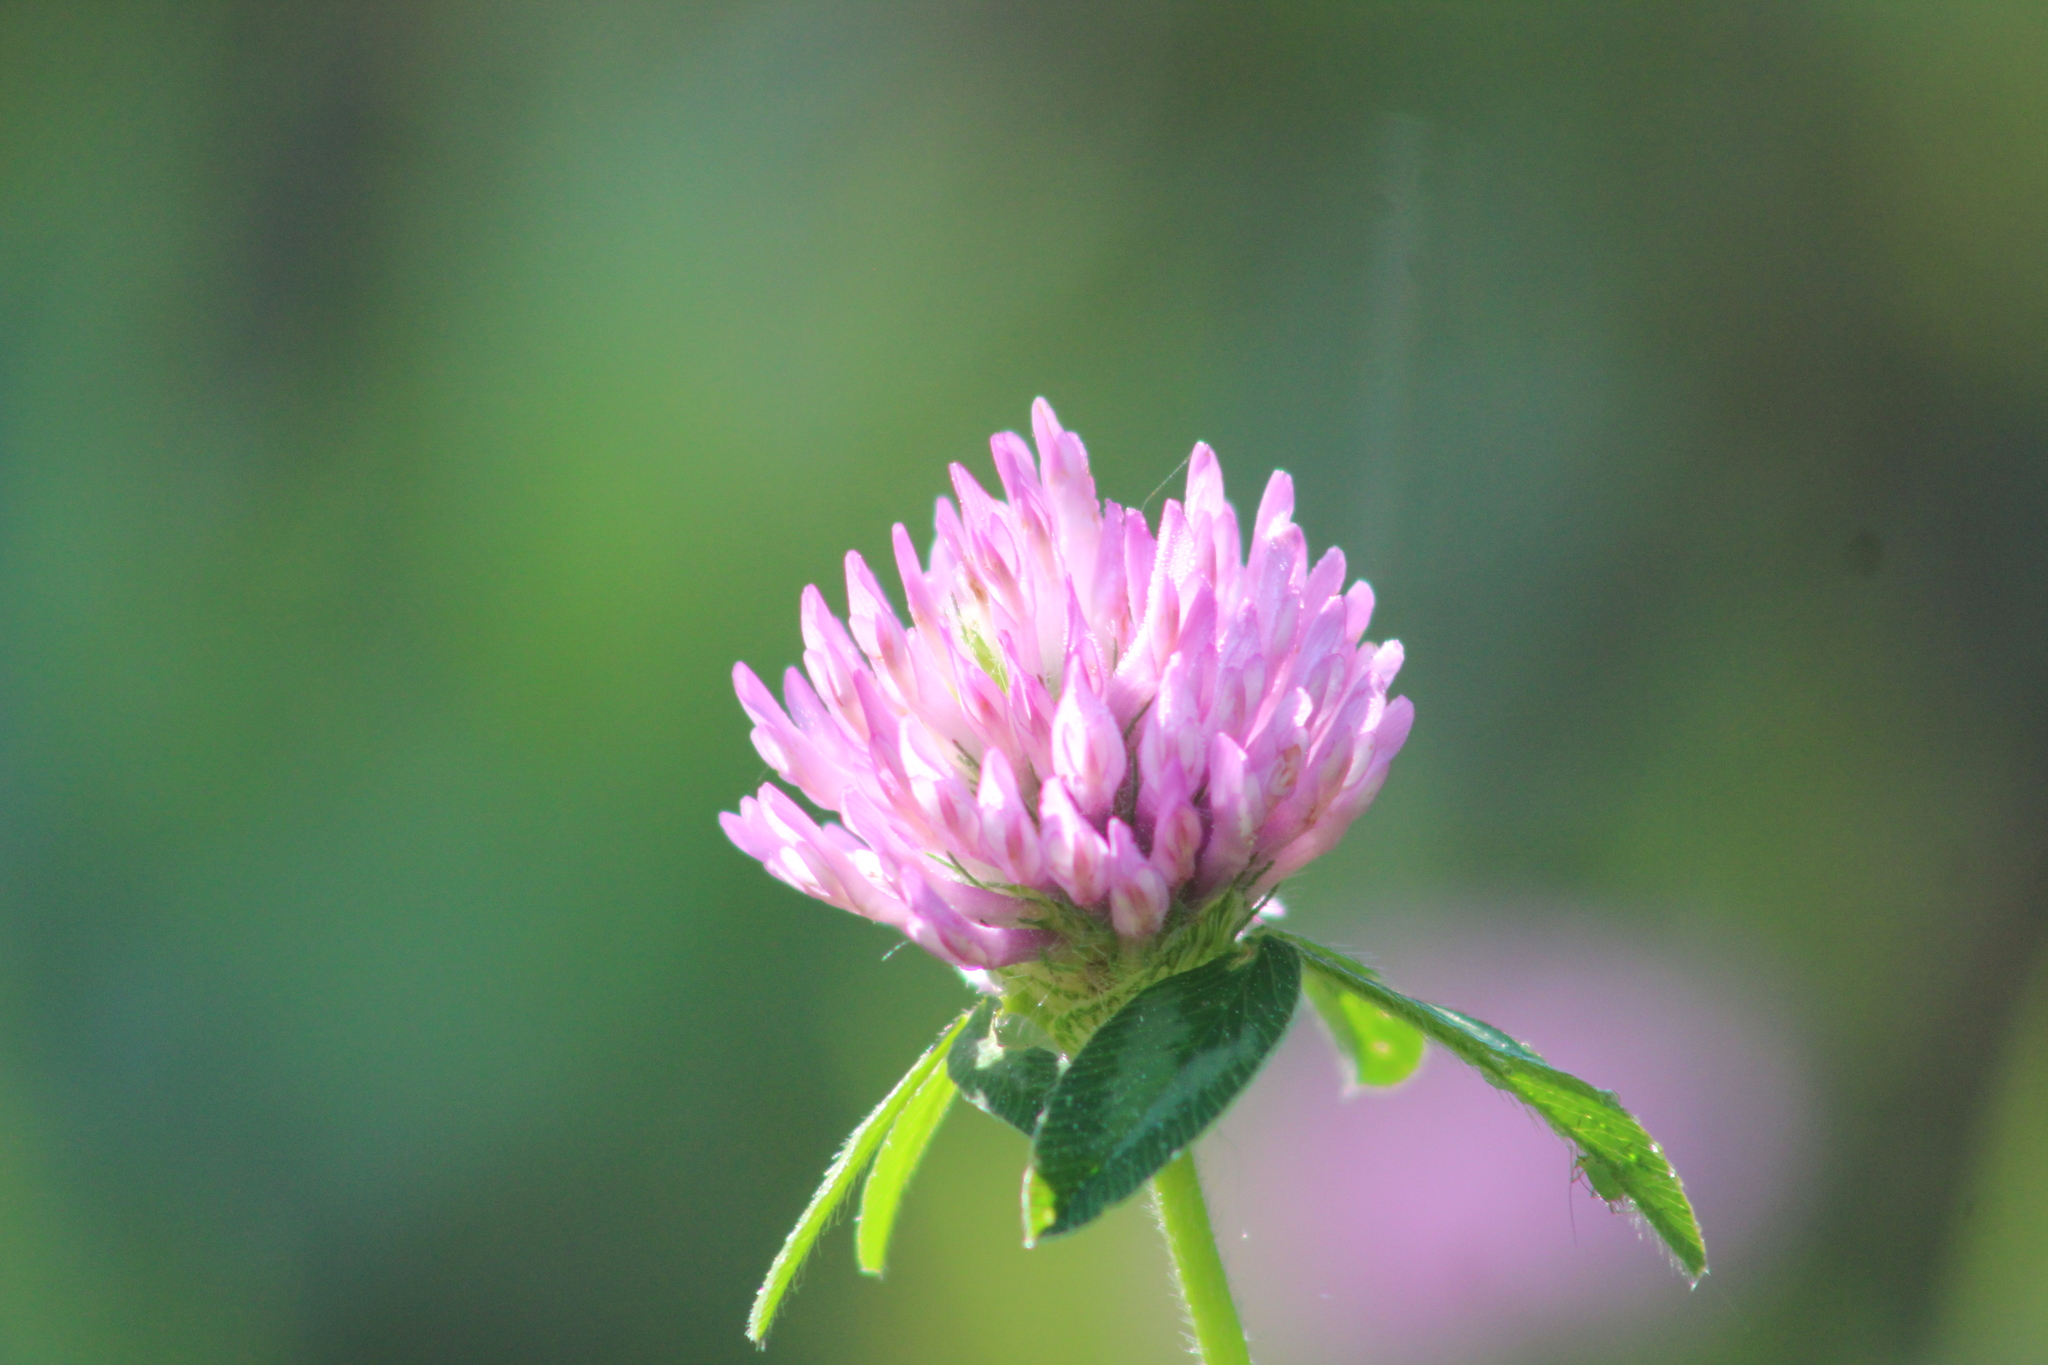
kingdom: Plantae
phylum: Tracheophyta
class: Magnoliopsida
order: Fabales
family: Fabaceae
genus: Trifolium
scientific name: Trifolium pratense
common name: Red clover
